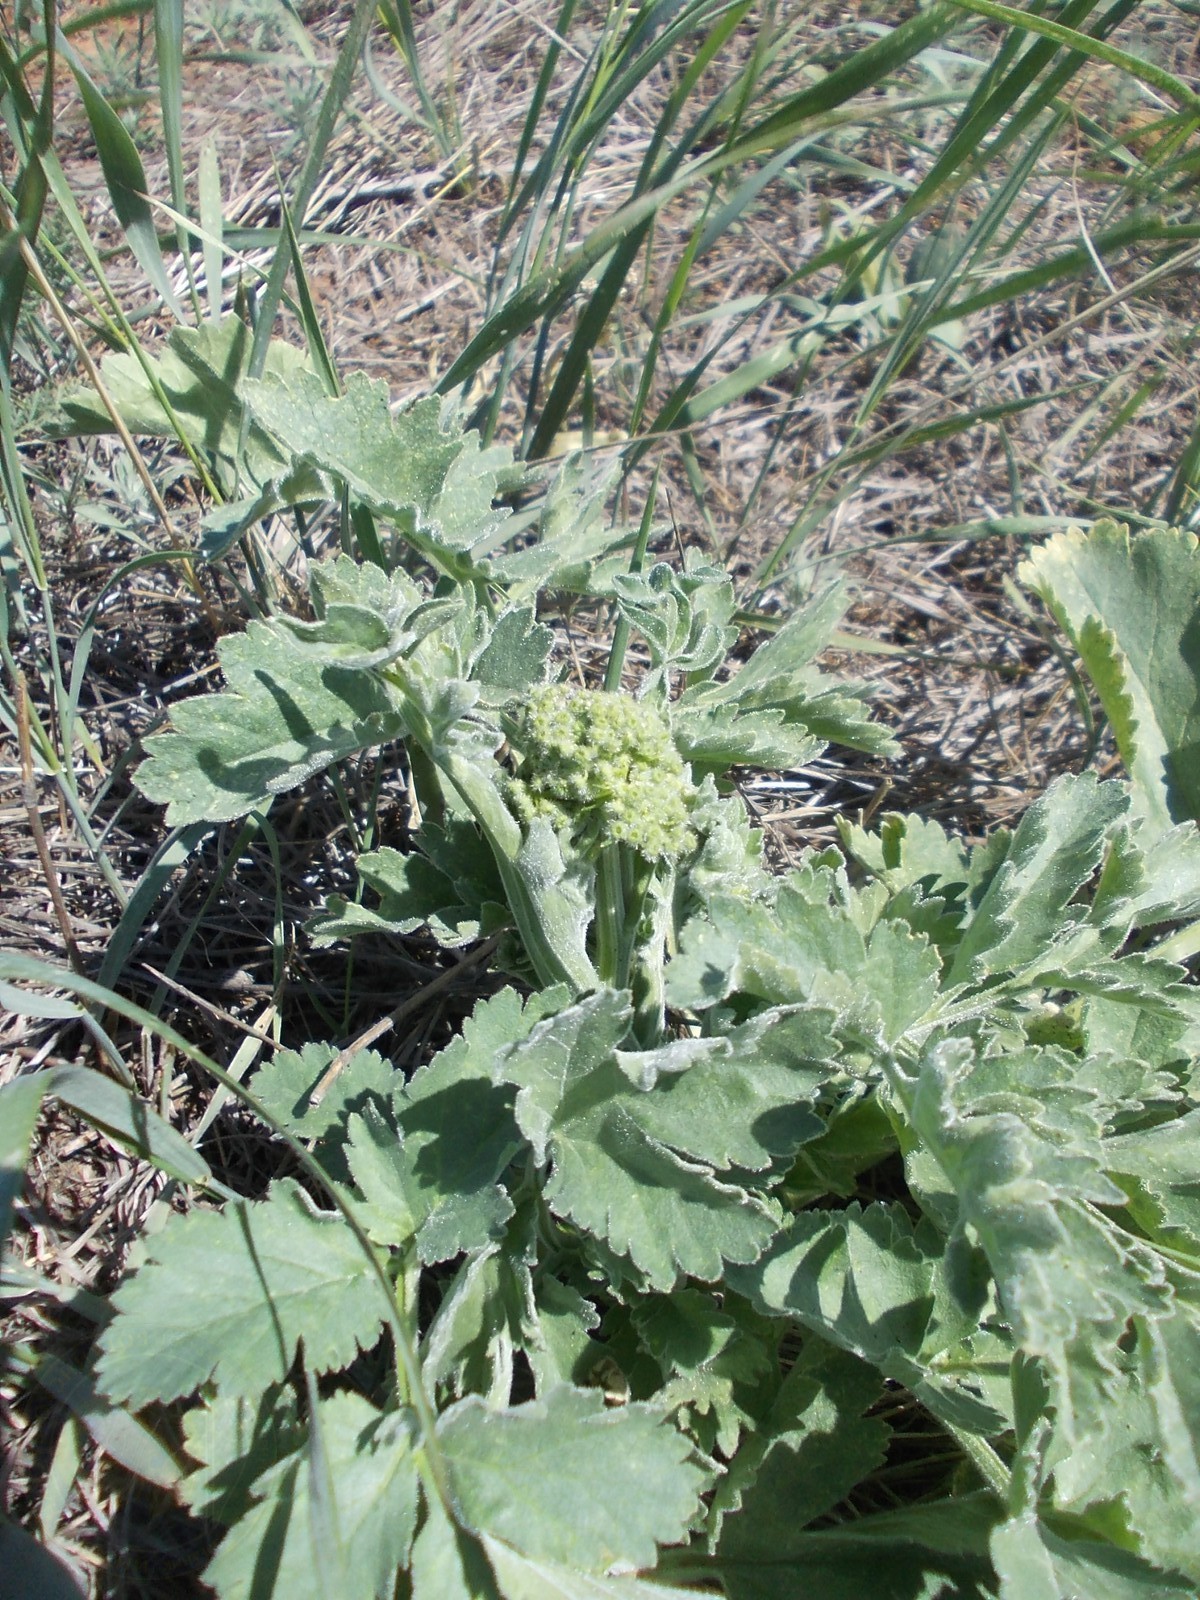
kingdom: Plantae
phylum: Tracheophyta
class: Magnoliopsida
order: Apiales
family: Apiaceae
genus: Pastinaca
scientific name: Pastinaca clausii
